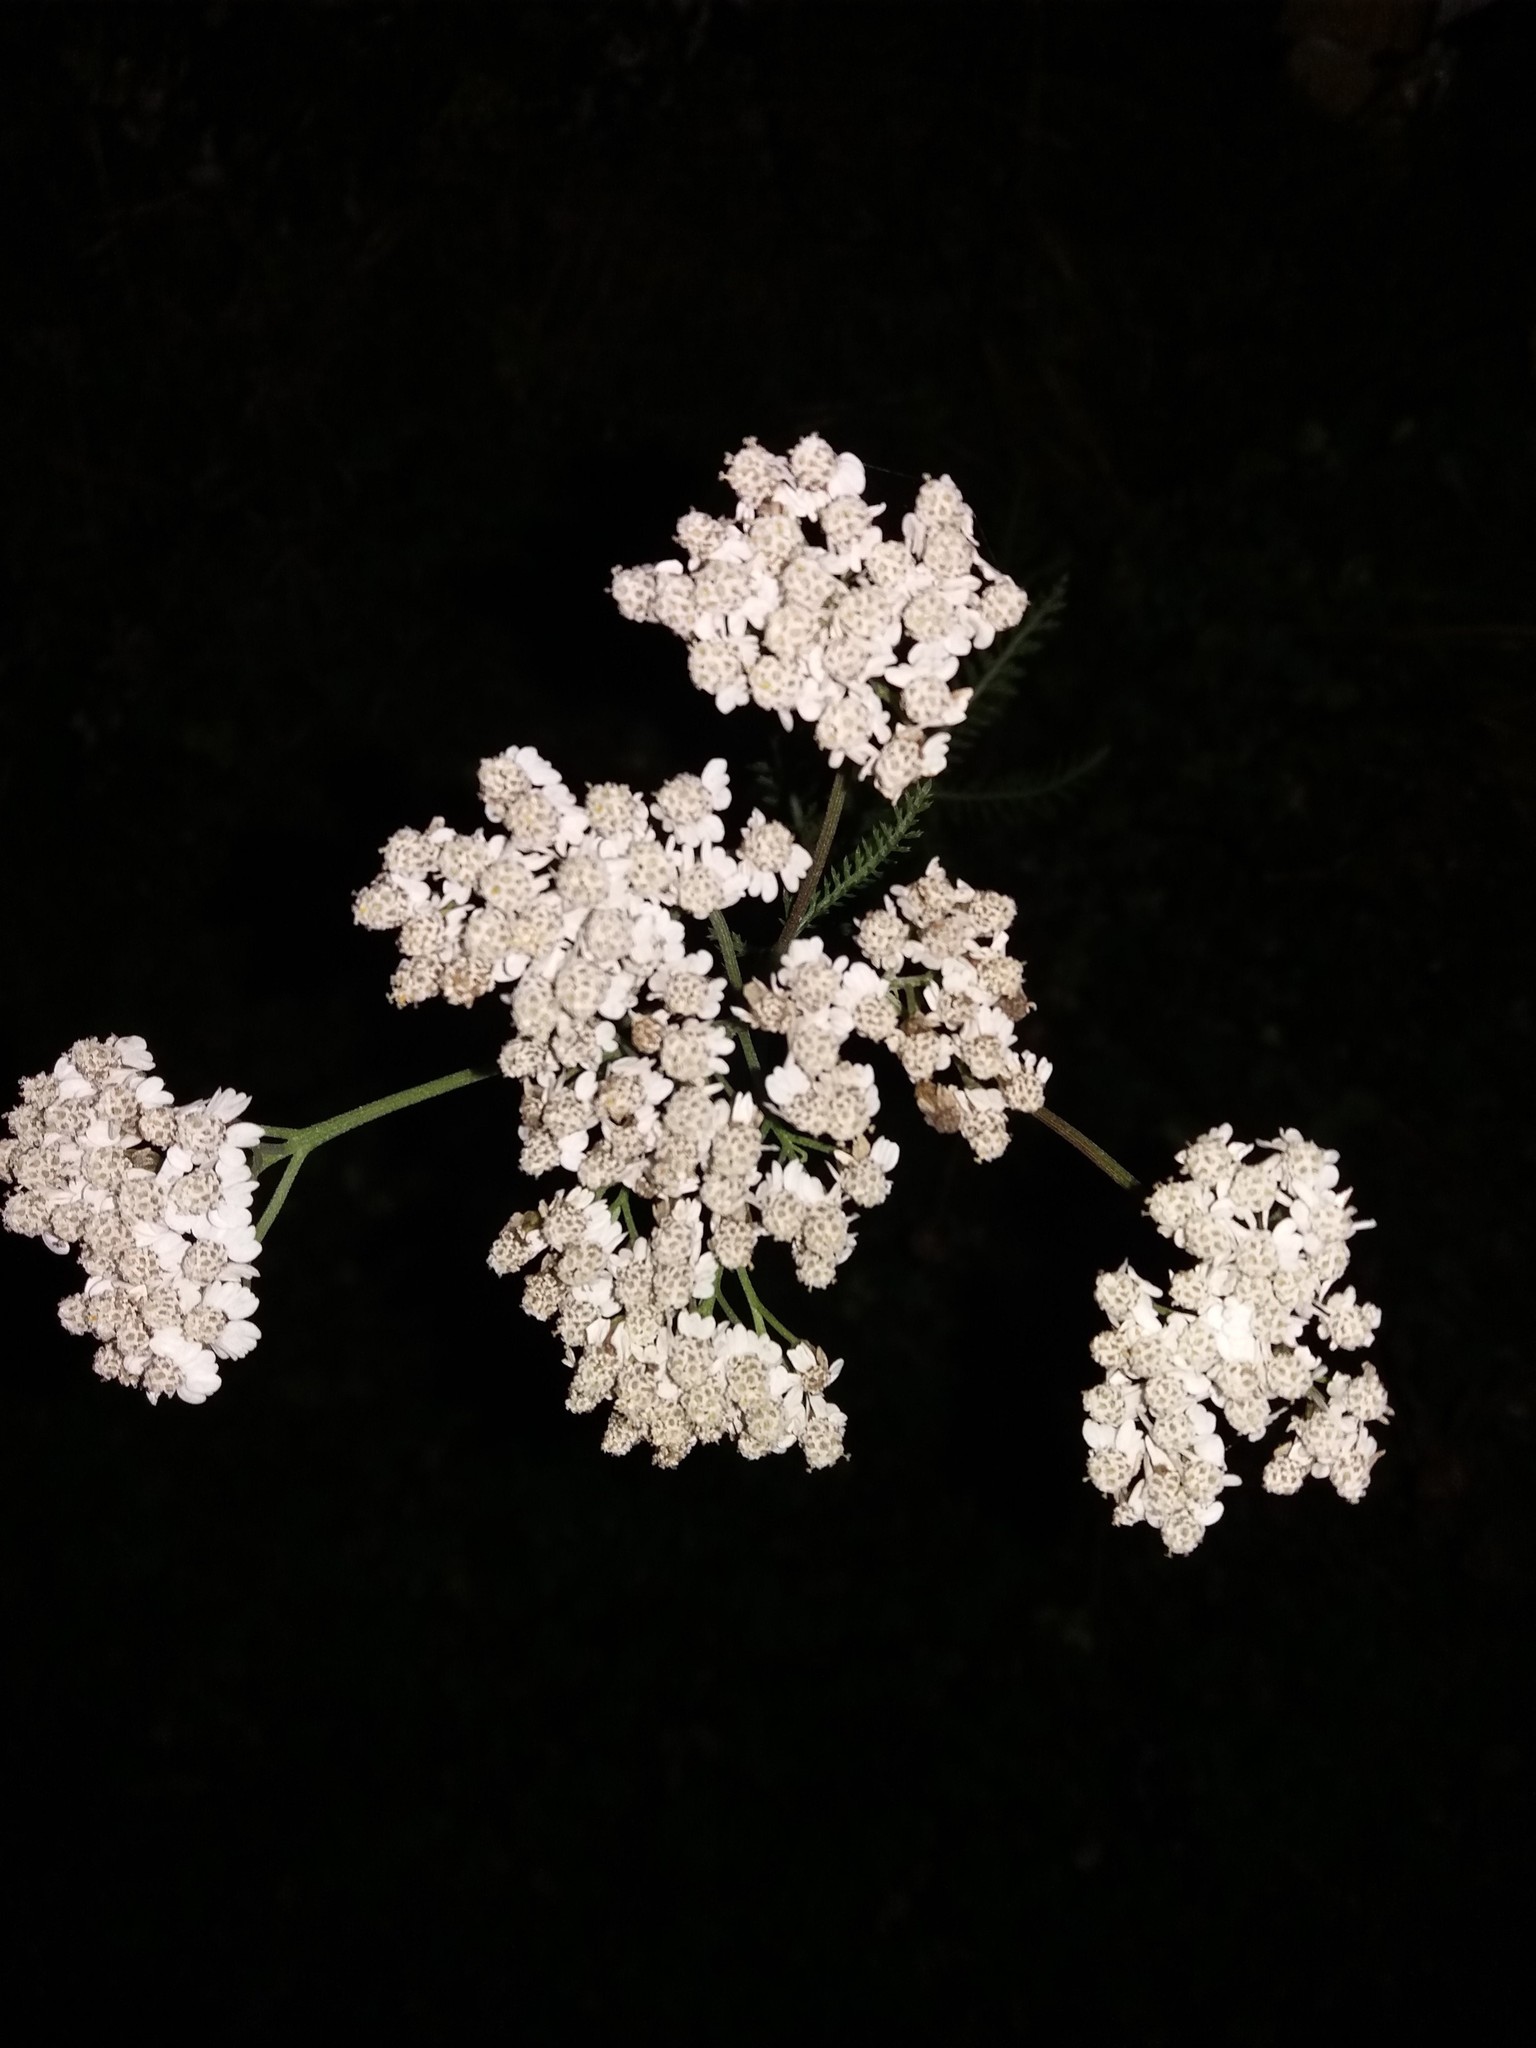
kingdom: Plantae
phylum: Tracheophyta
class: Magnoliopsida
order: Asterales
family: Asteraceae
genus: Achillea
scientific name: Achillea millefolium
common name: Yarrow
